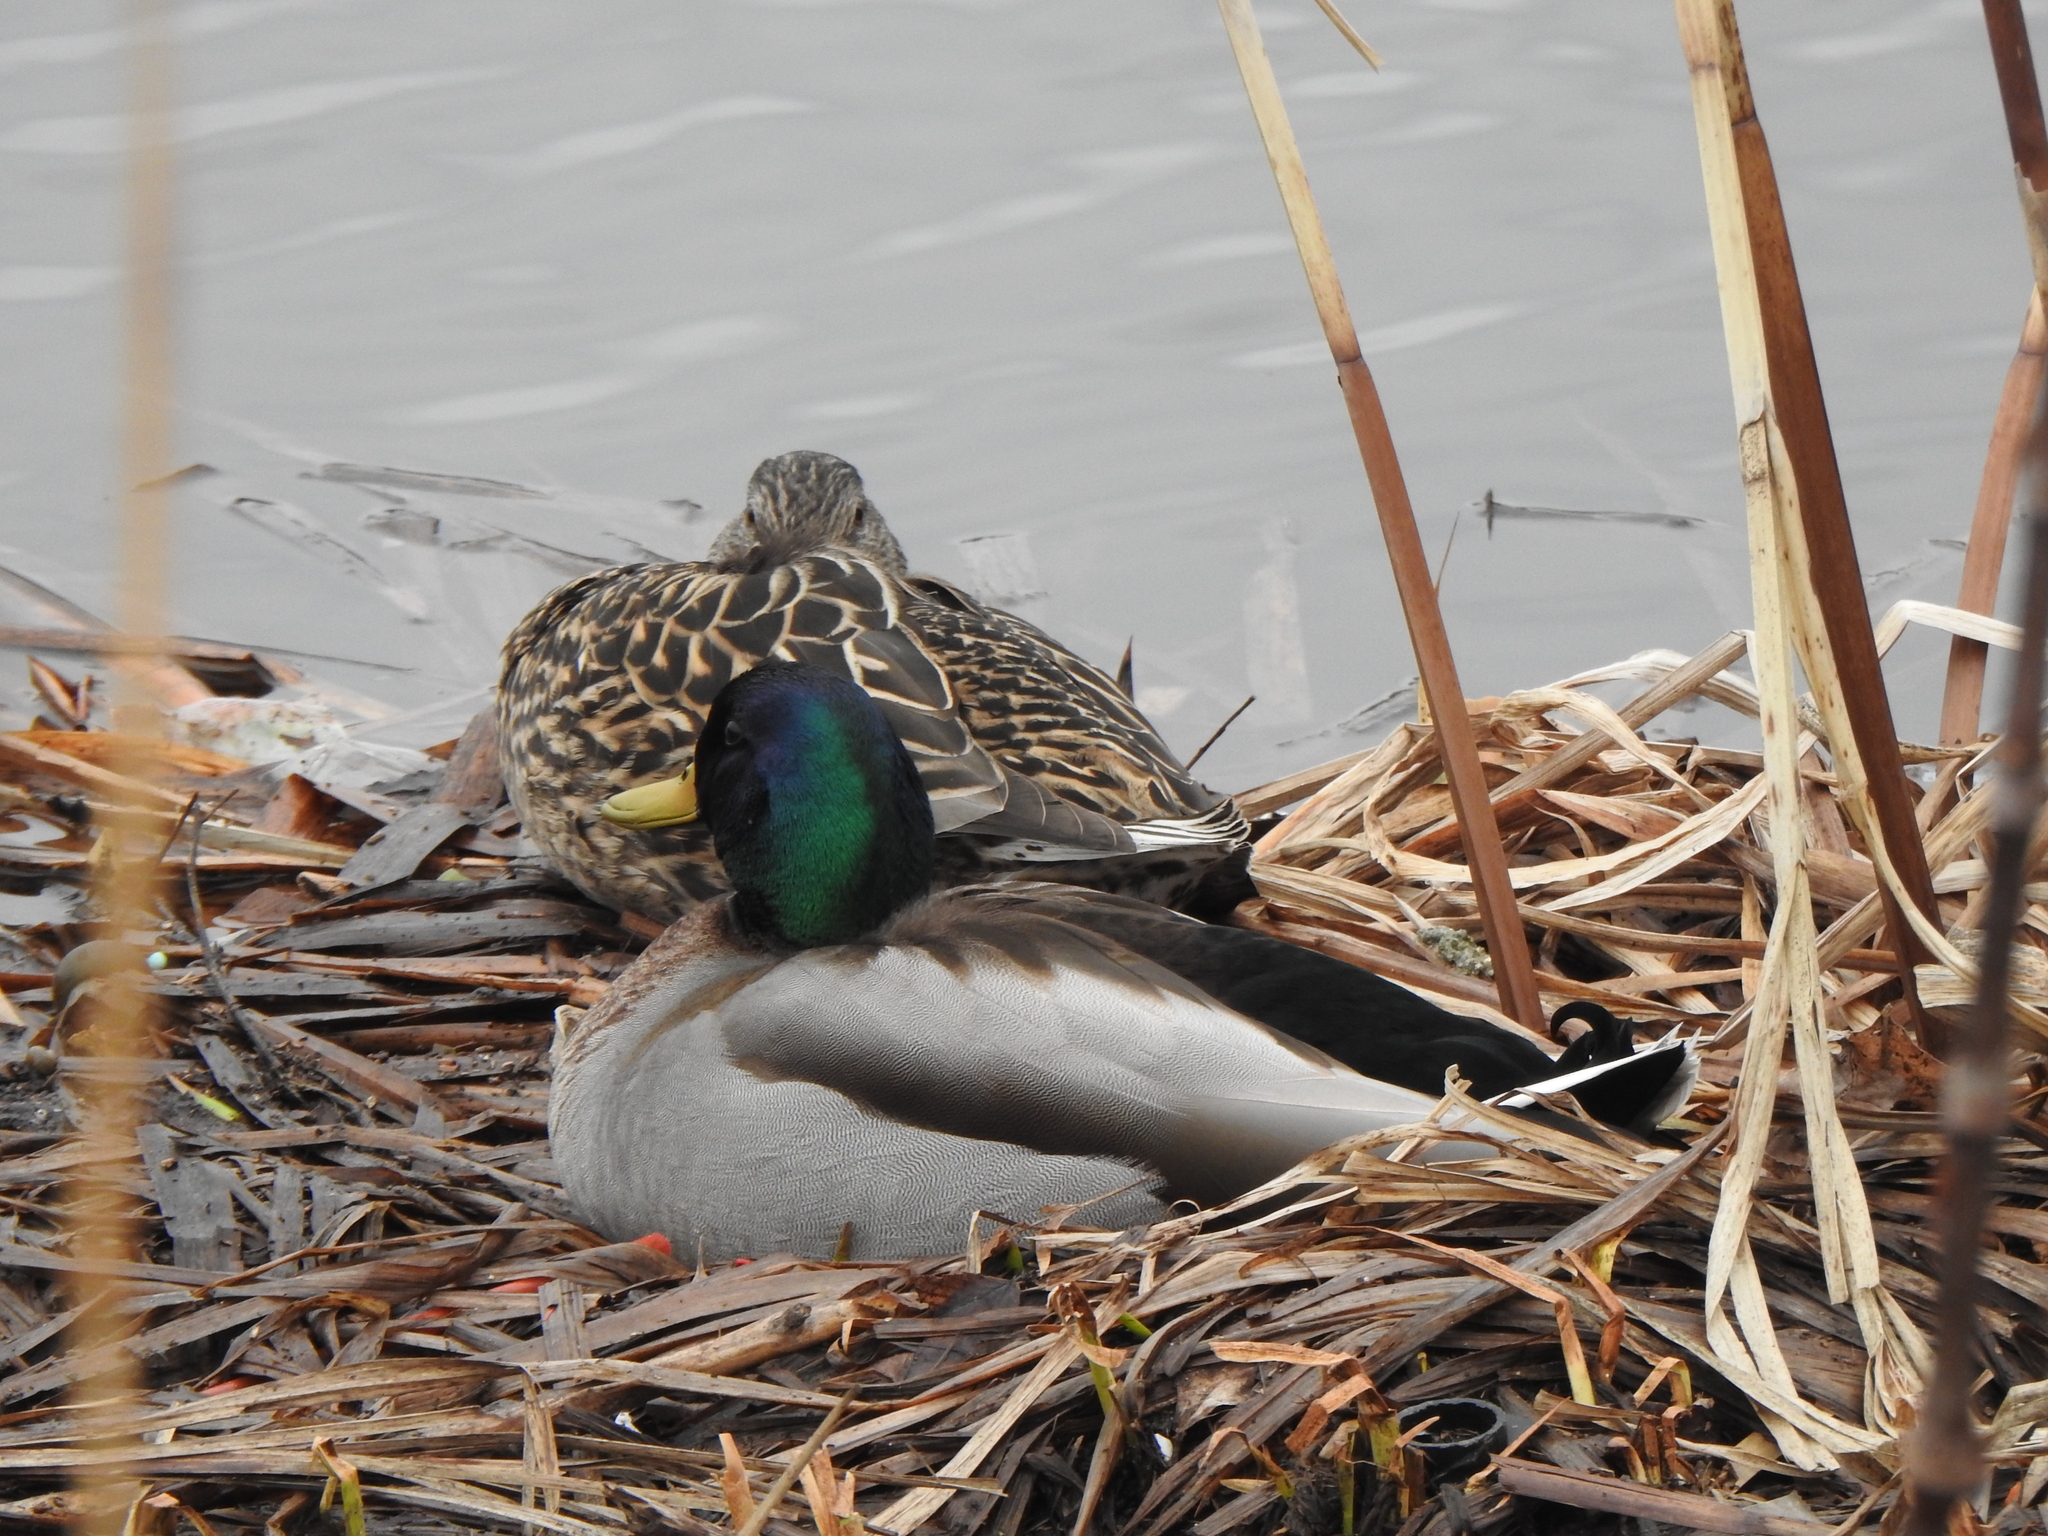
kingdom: Animalia
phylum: Chordata
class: Aves
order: Anseriformes
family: Anatidae
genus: Anas
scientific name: Anas platyrhynchos
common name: Mallard
